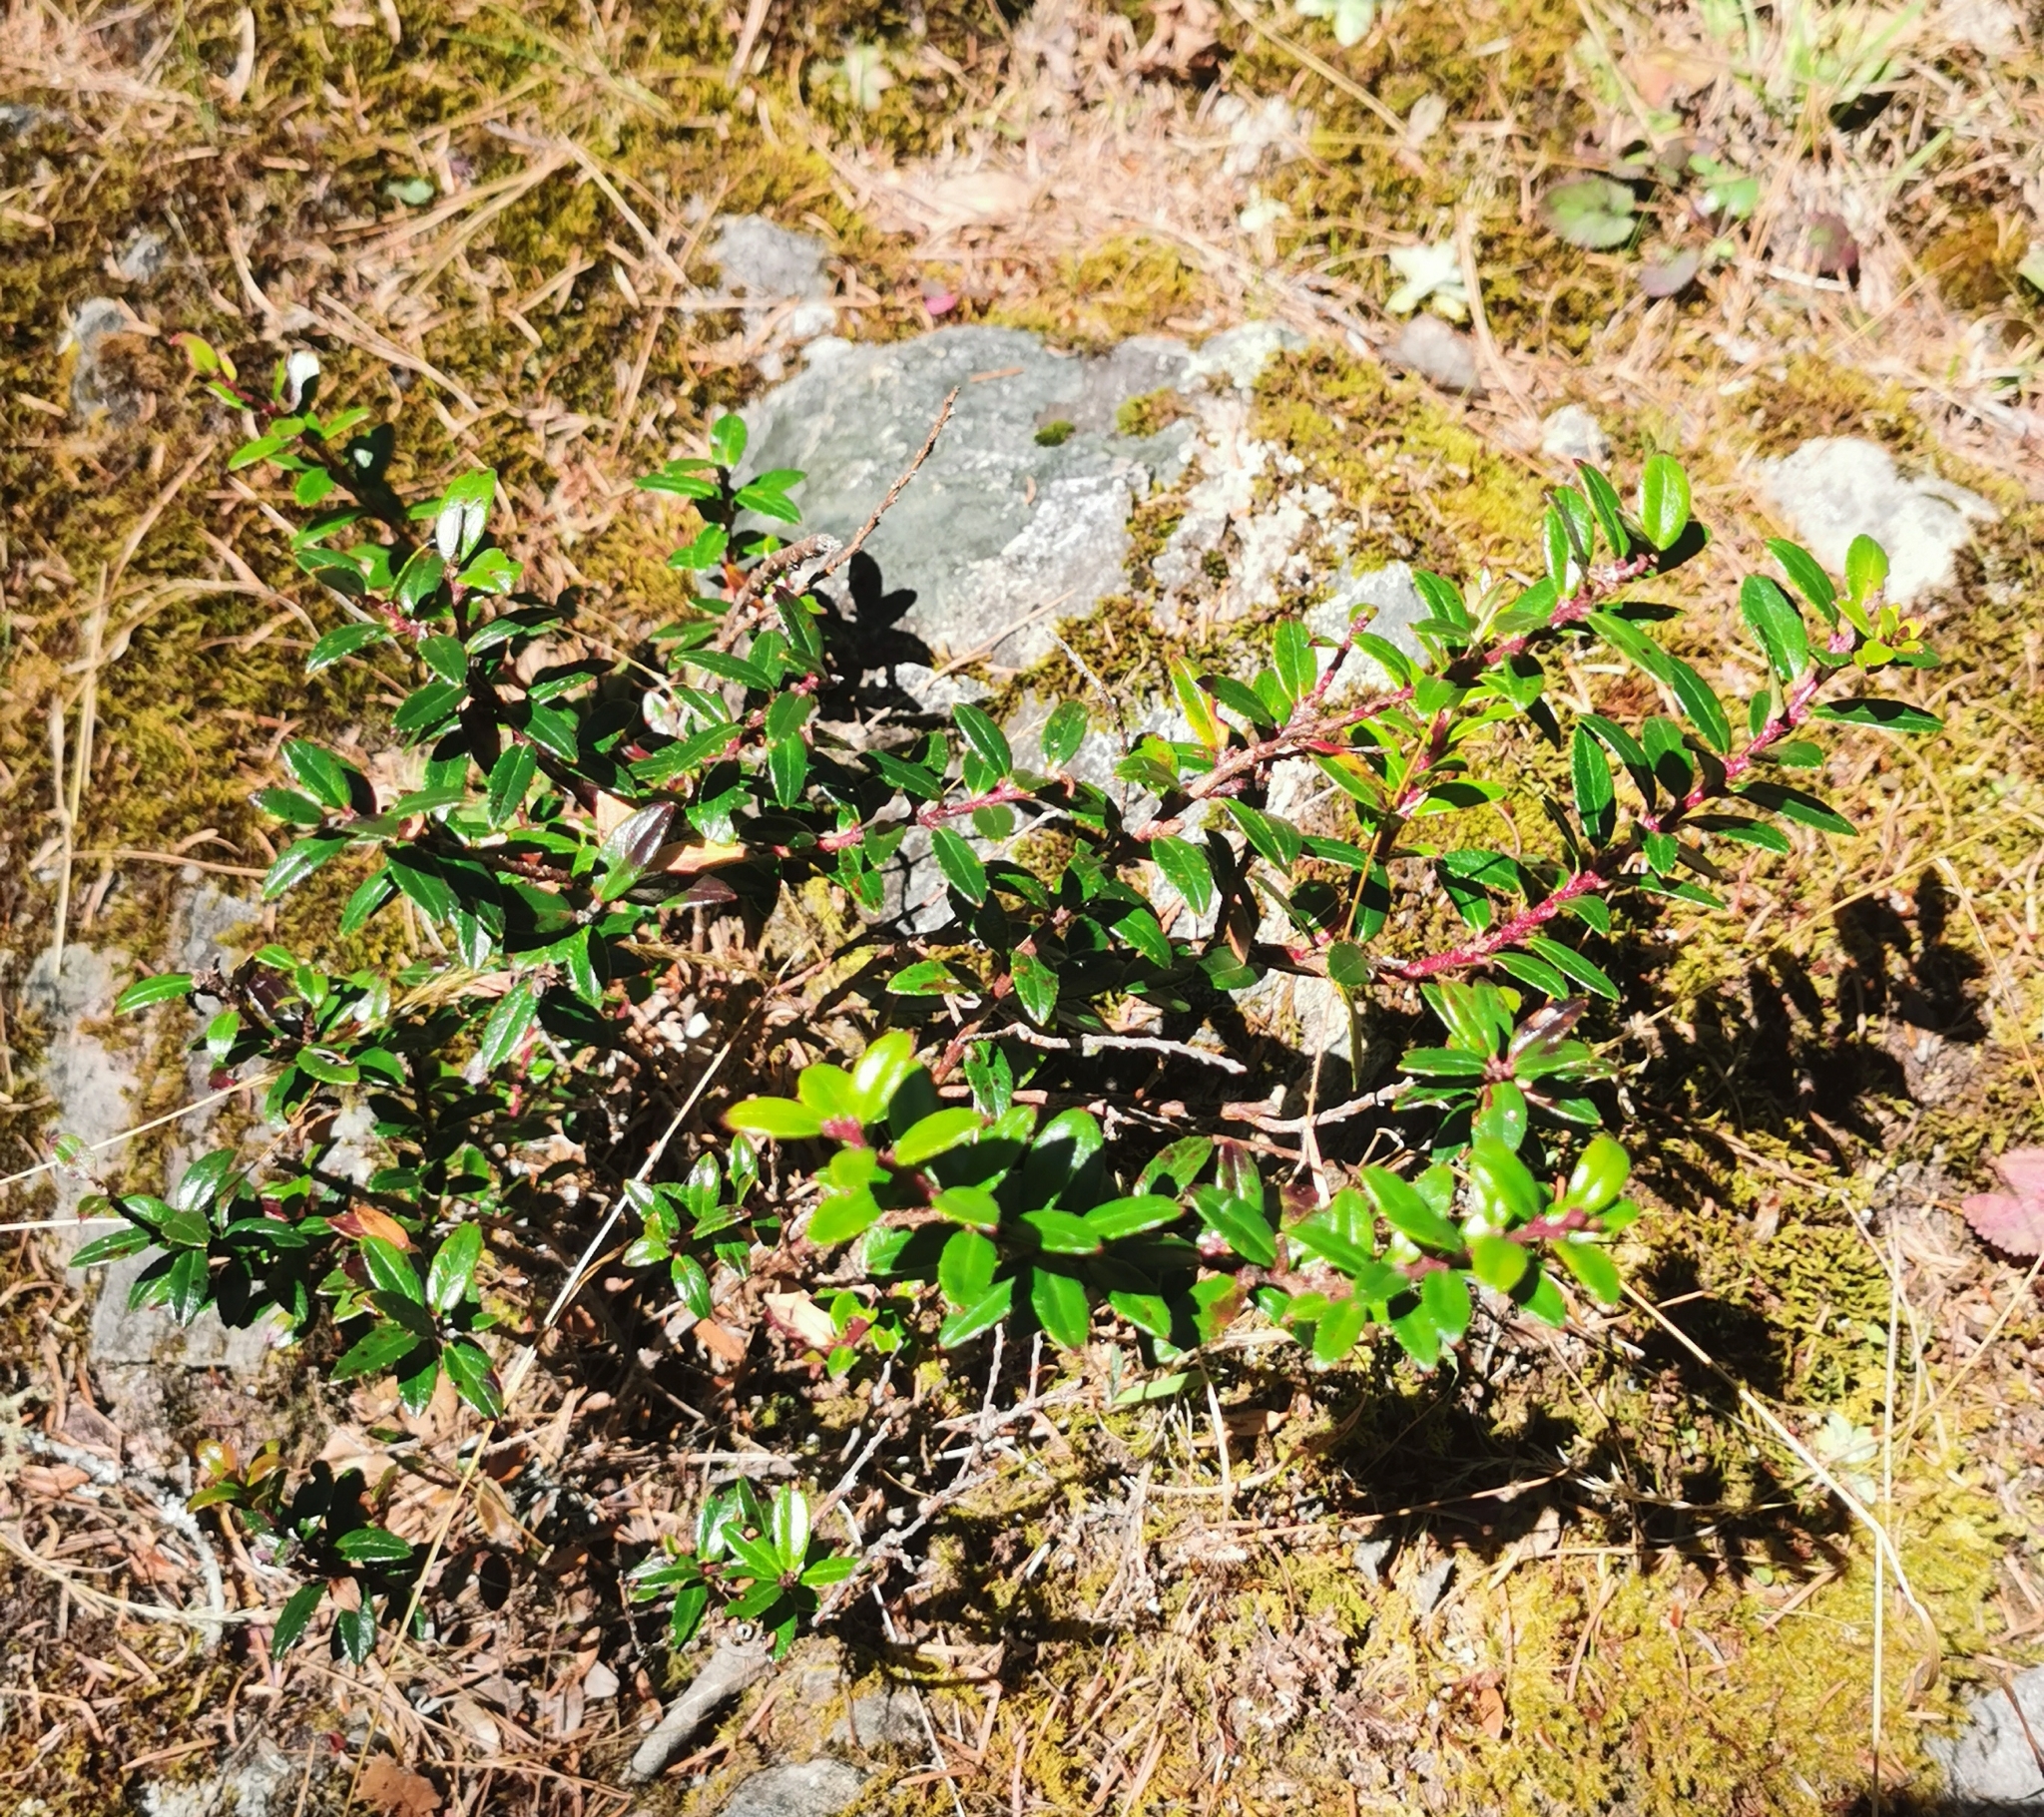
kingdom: Plantae
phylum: Tracheophyta
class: Magnoliopsida
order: Ericales
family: Ericaceae
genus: Gaultheria
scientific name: Gaultheria myrsinoides
